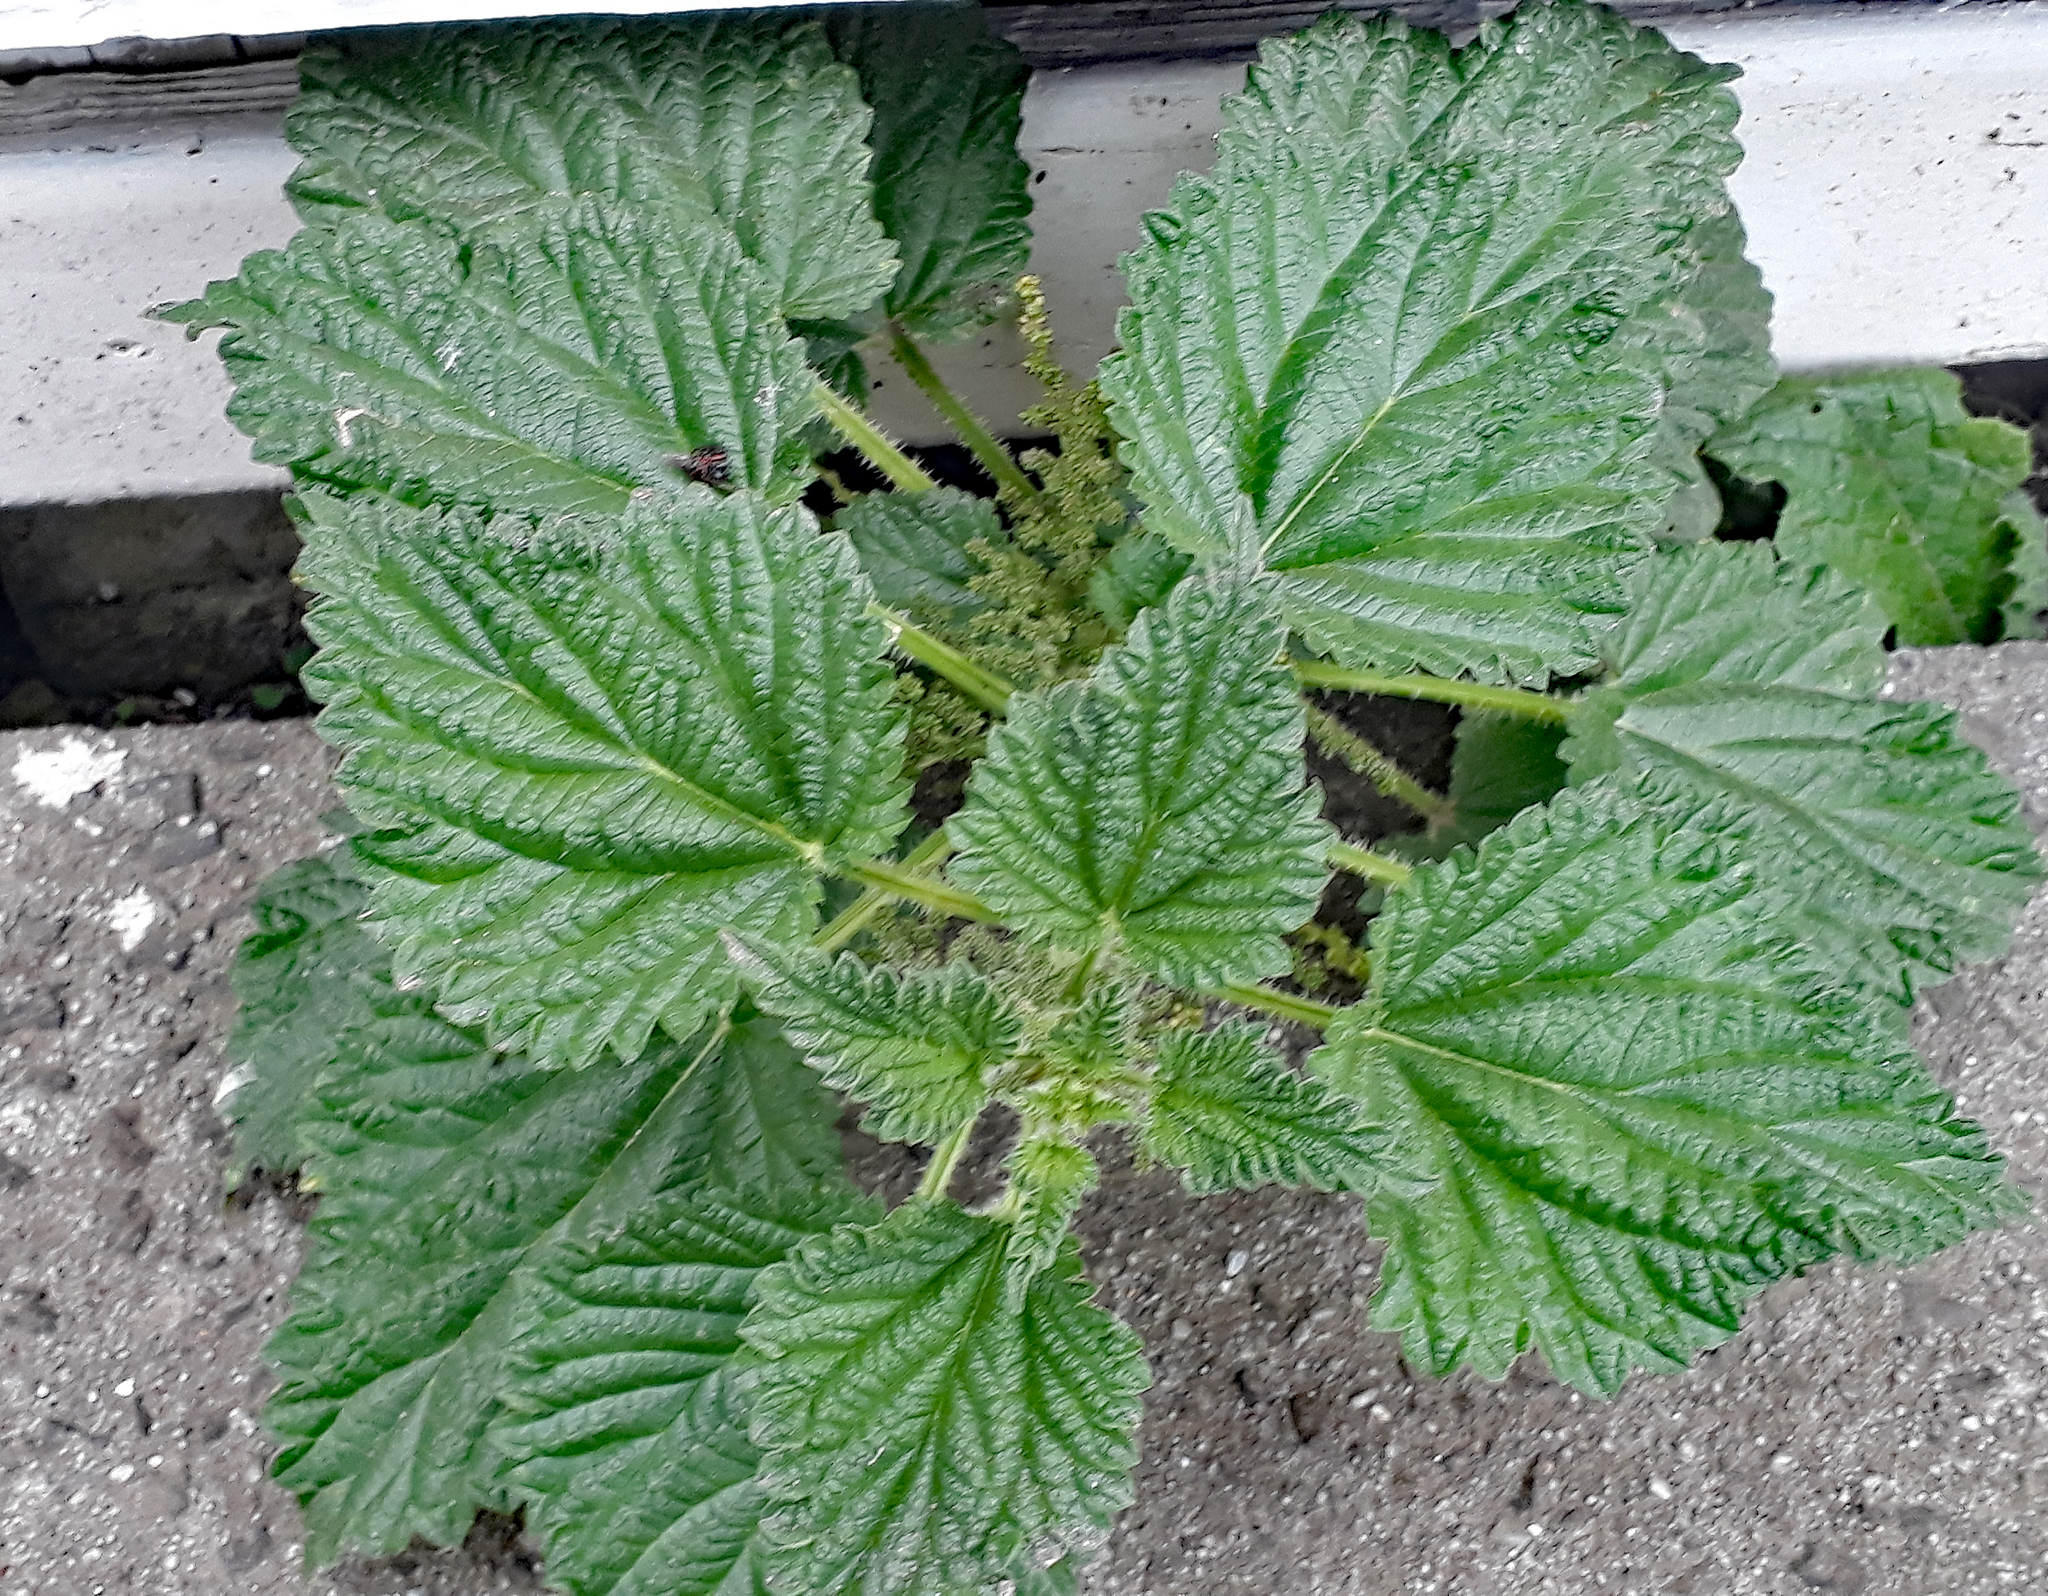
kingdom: Plantae
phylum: Tracheophyta
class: Magnoliopsida
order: Rosales
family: Urticaceae
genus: Urtica
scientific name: Urtica australis
